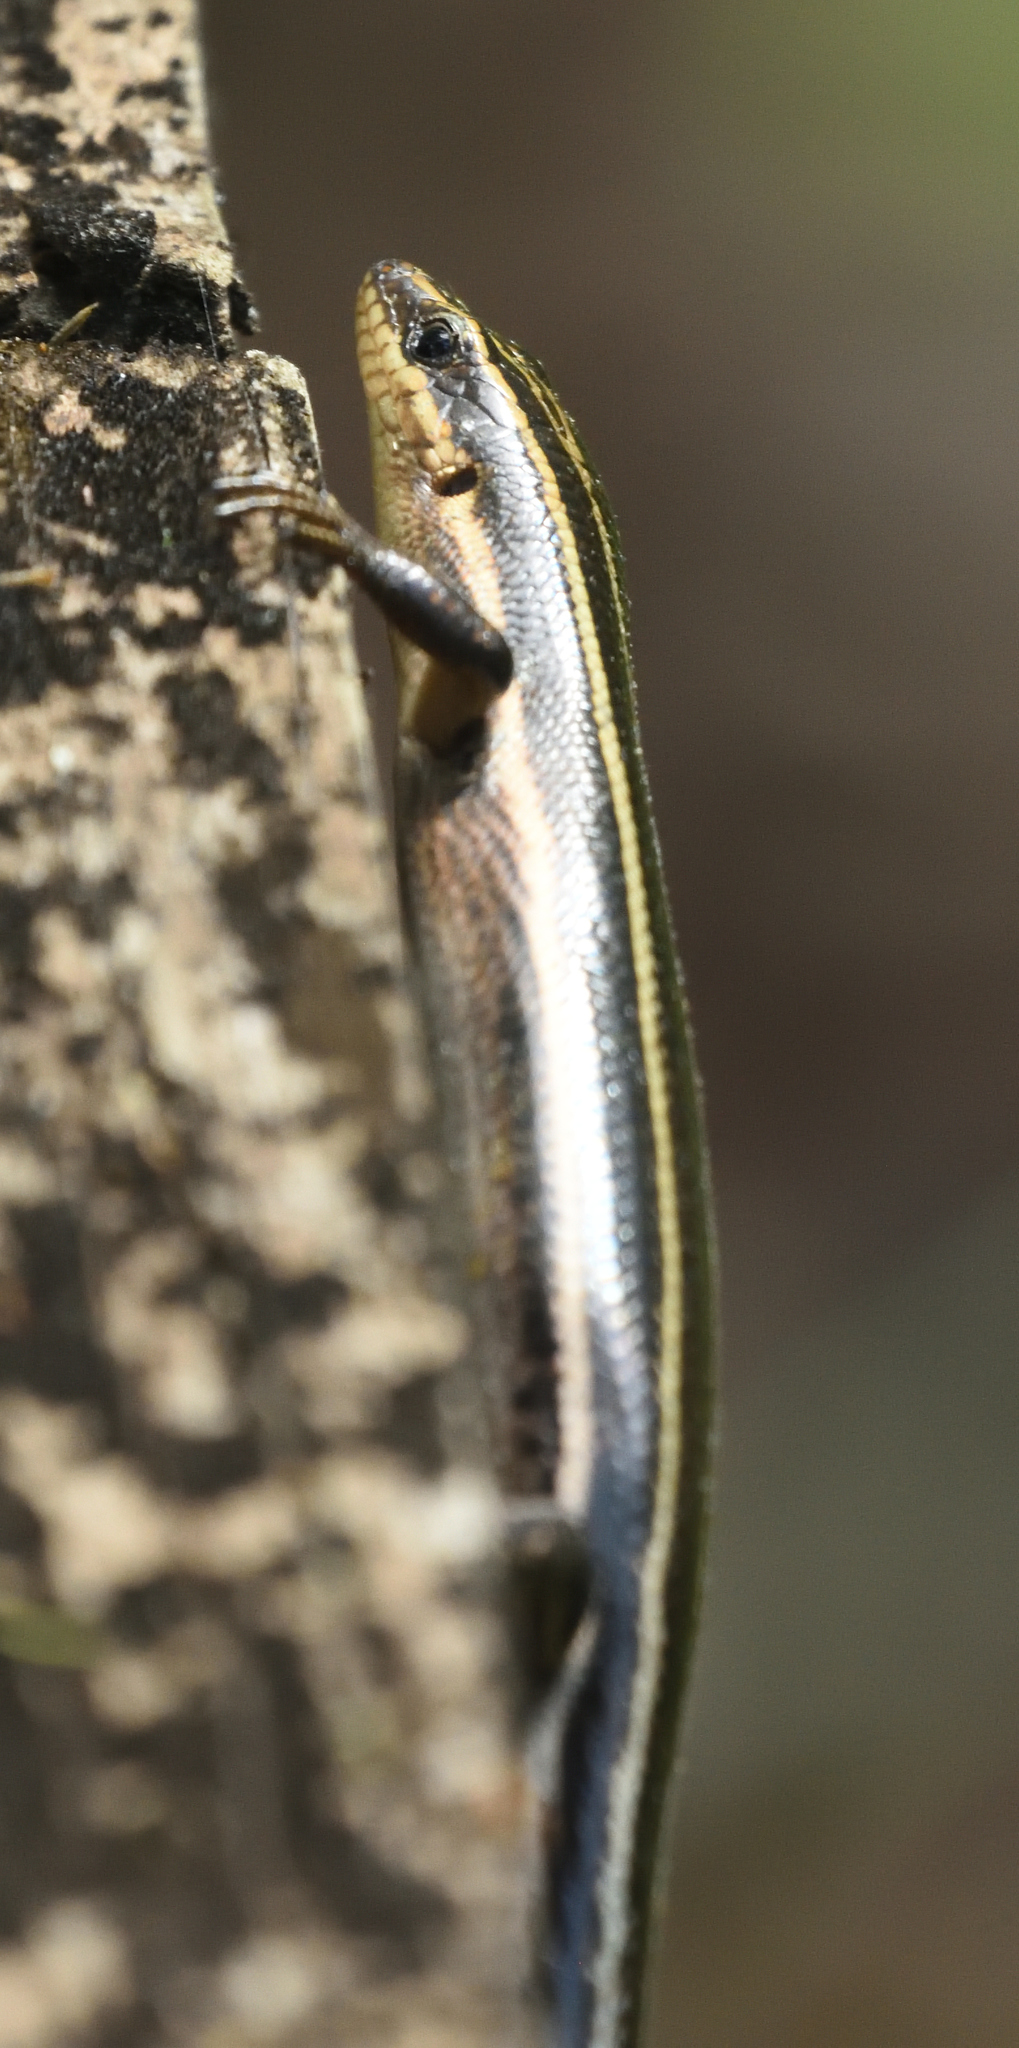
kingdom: Animalia
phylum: Chordata
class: Squamata
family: Scincidae
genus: Plestiodon
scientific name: Plestiodon fasciatus
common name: Five-lined skink
